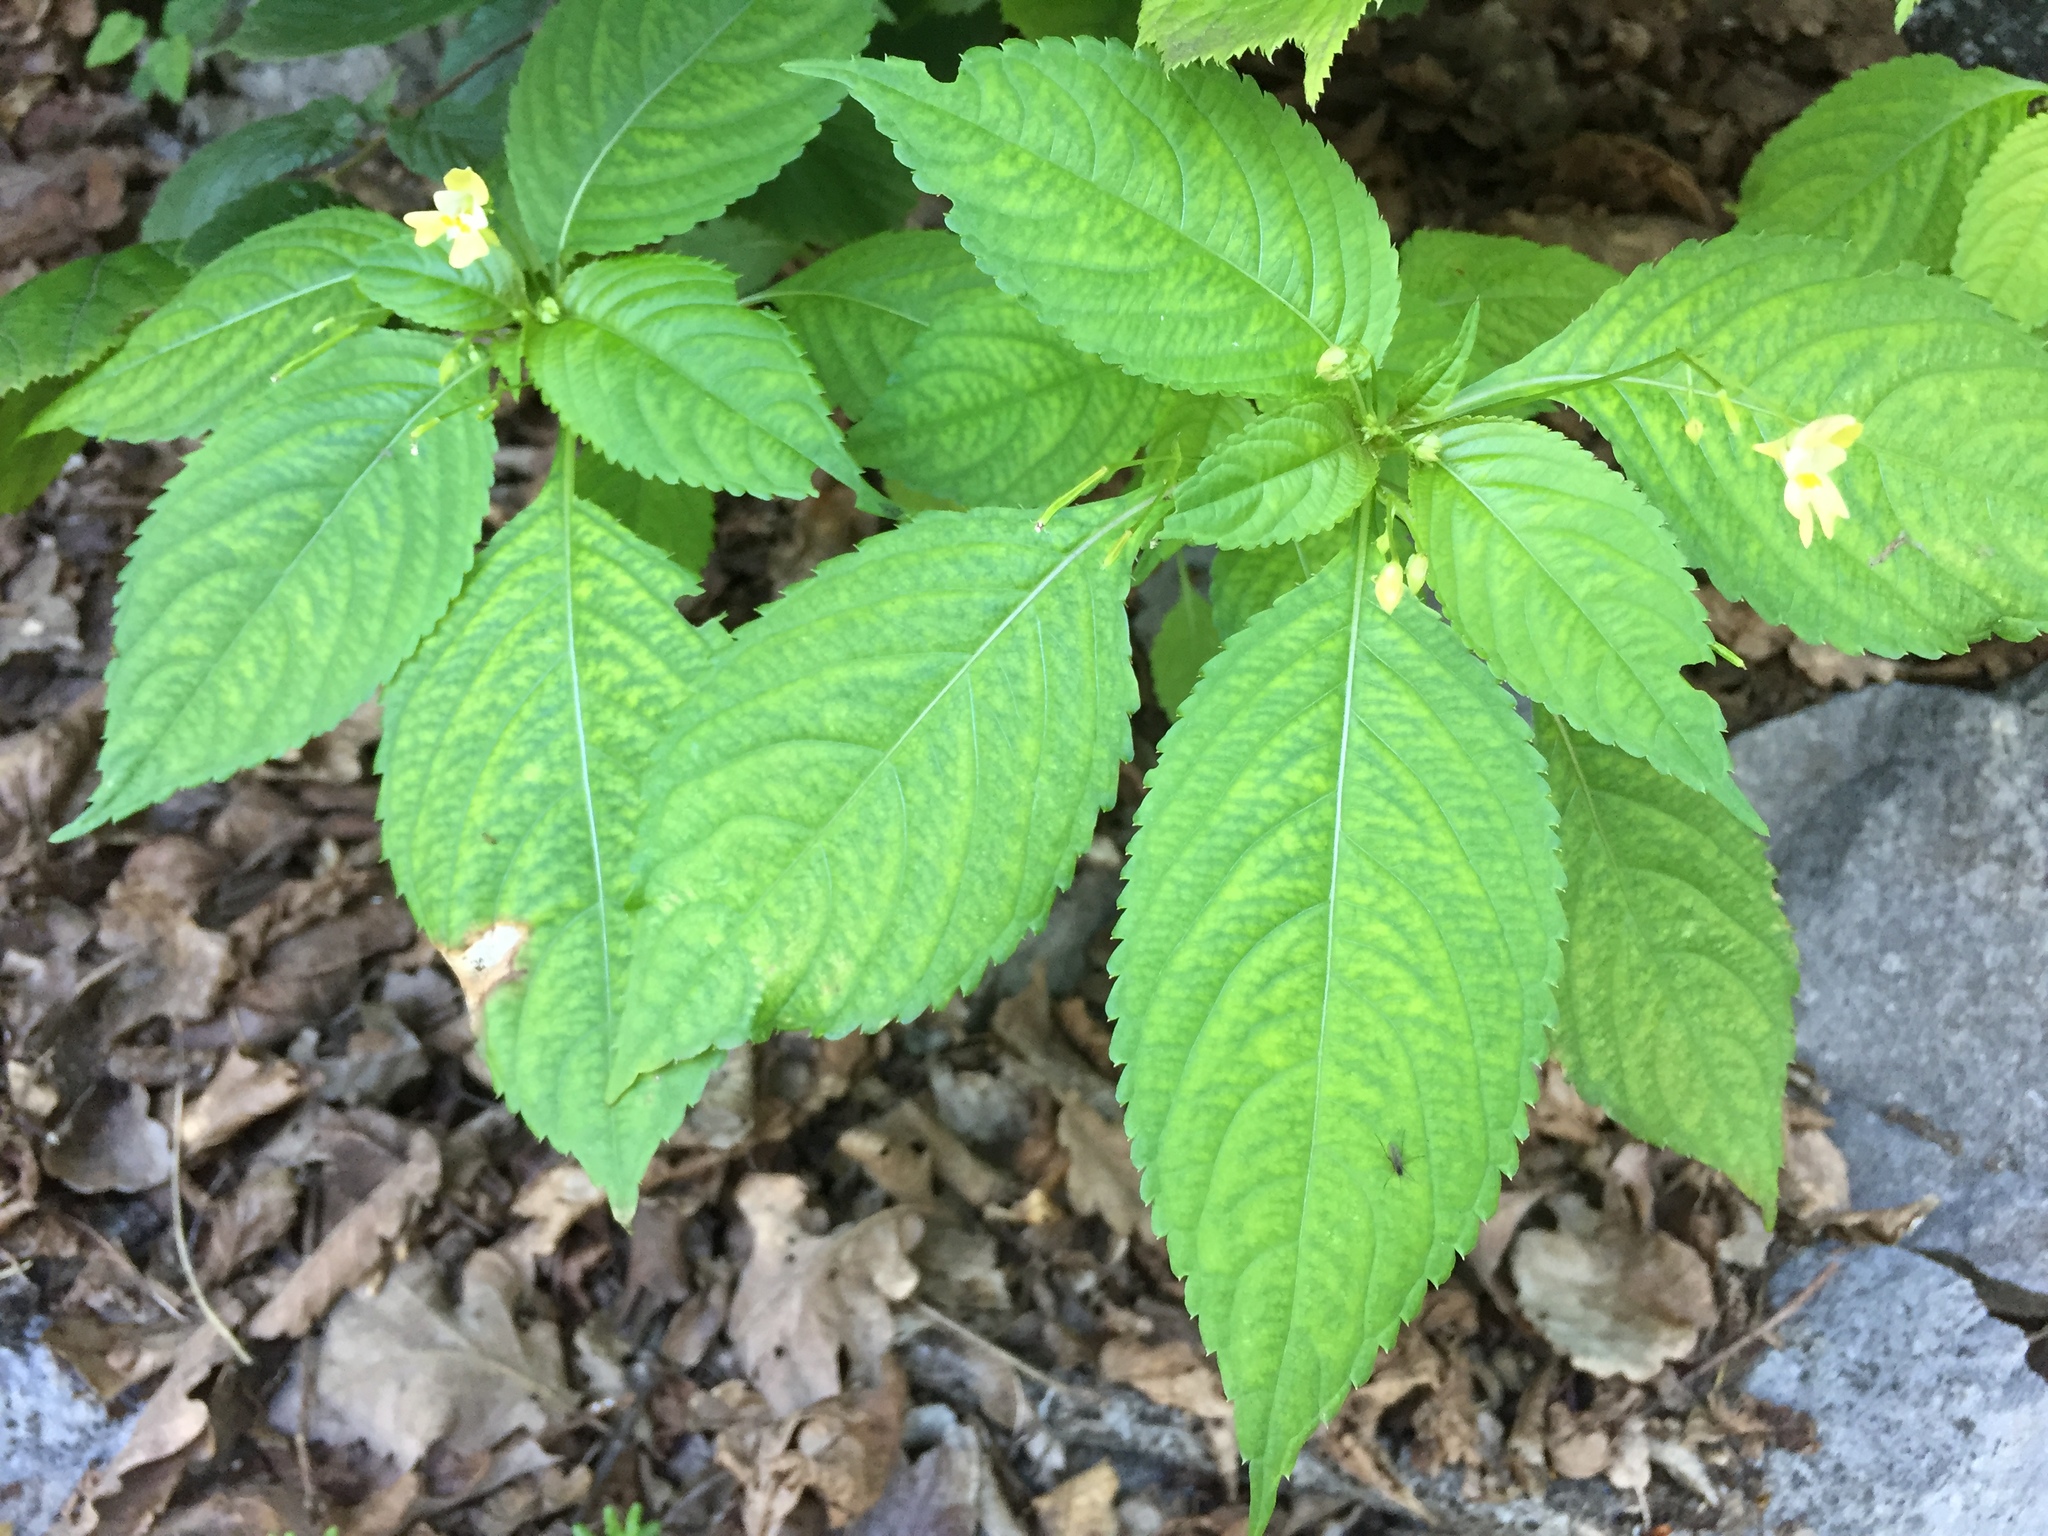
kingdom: Plantae
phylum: Tracheophyta
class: Magnoliopsida
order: Ericales
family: Balsaminaceae
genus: Impatiens
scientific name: Impatiens parviflora
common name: Small balsam
